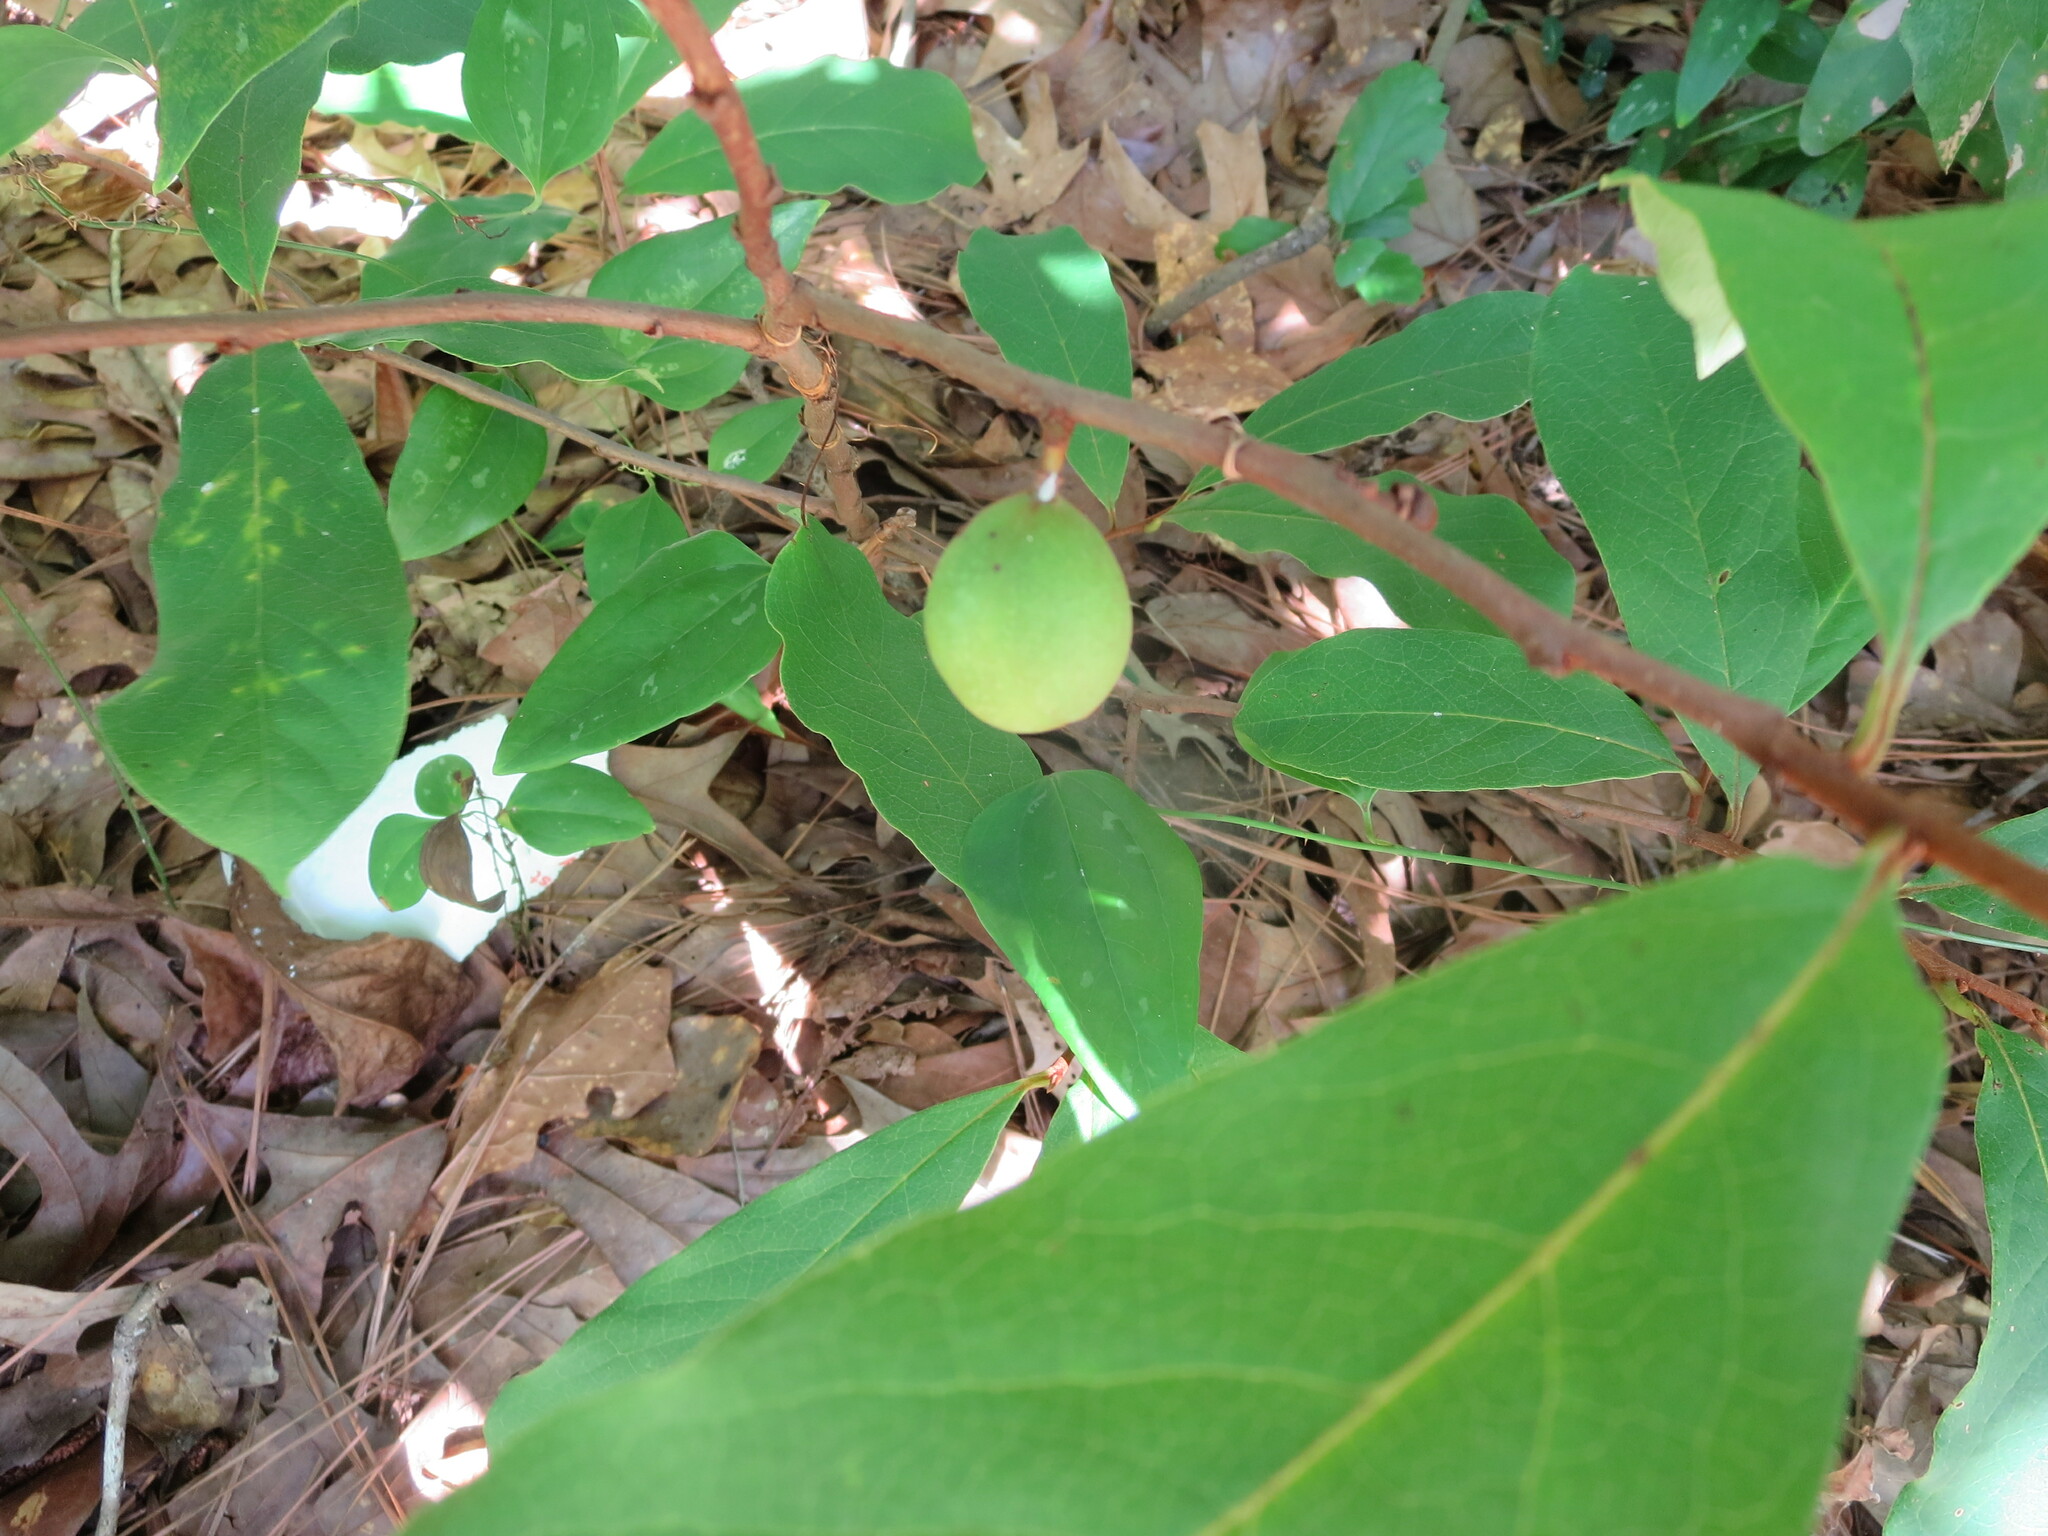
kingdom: Plantae
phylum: Tracheophyta
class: Magnoliopsida
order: Magnoliales
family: Annonaceae
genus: Asimina
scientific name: Asimina parviflora
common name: Dwarf pawpaw
